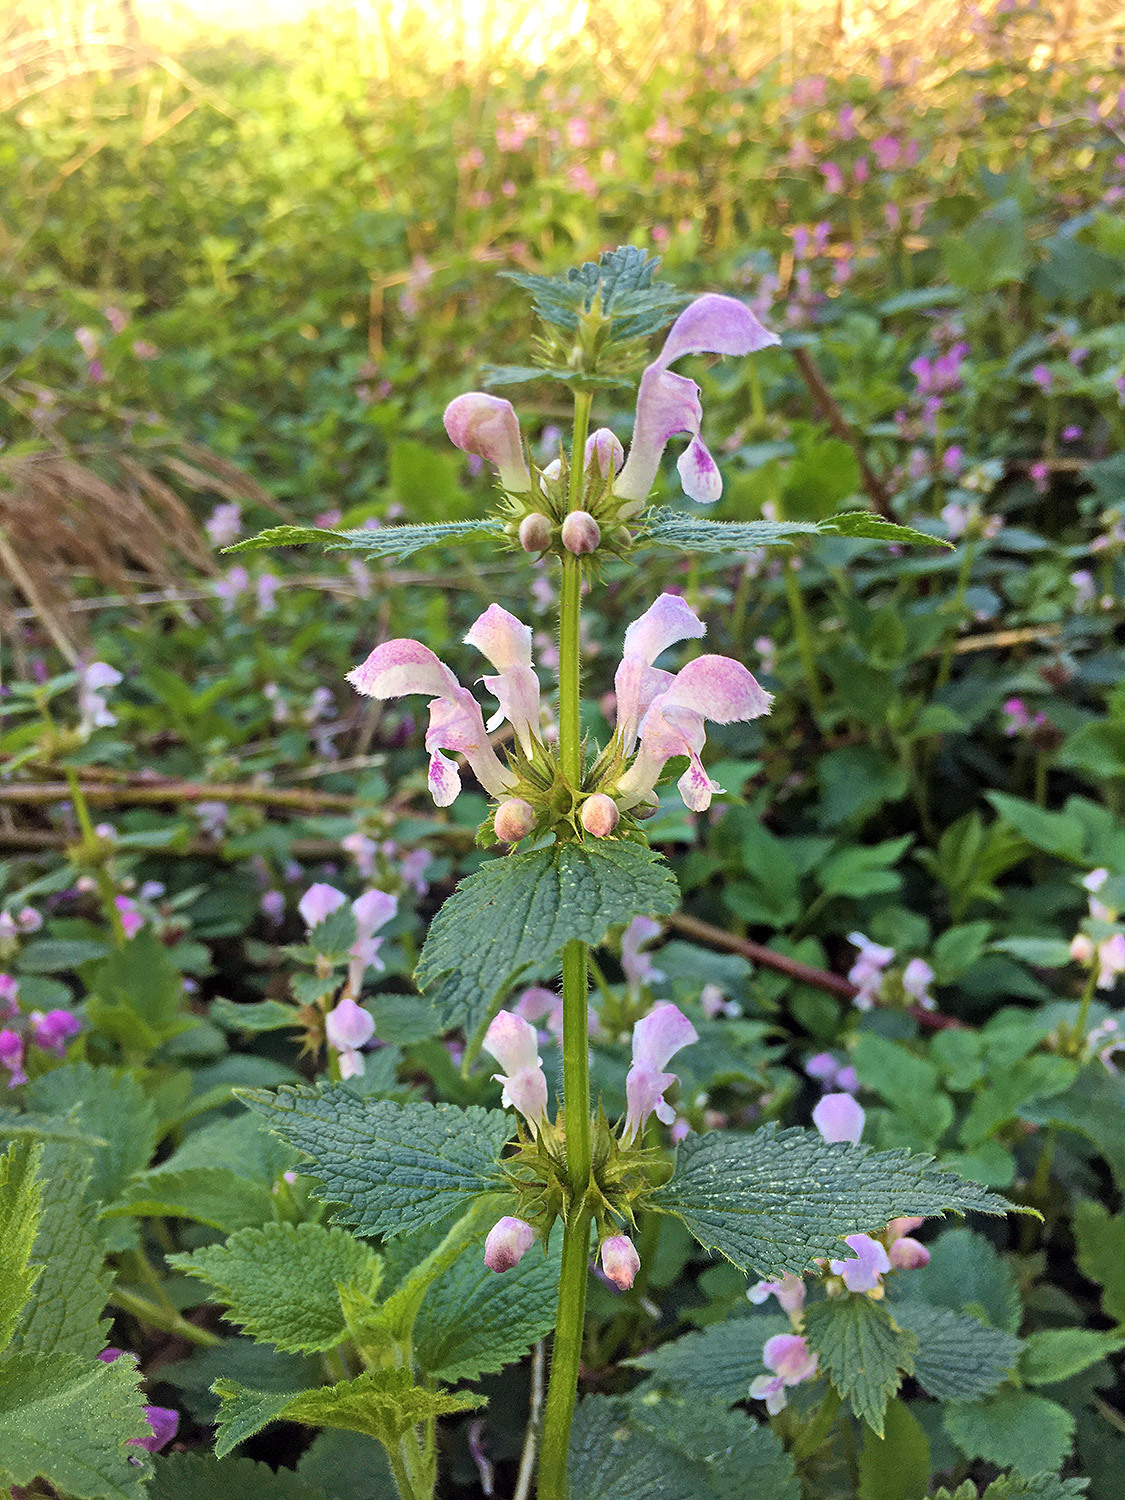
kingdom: Plantae
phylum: Tracheophyta
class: Magnoliopsida
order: Lamiales
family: Lamiaceae
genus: Lamium
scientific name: Lamium maculatum
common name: Spotted dead-nettle
